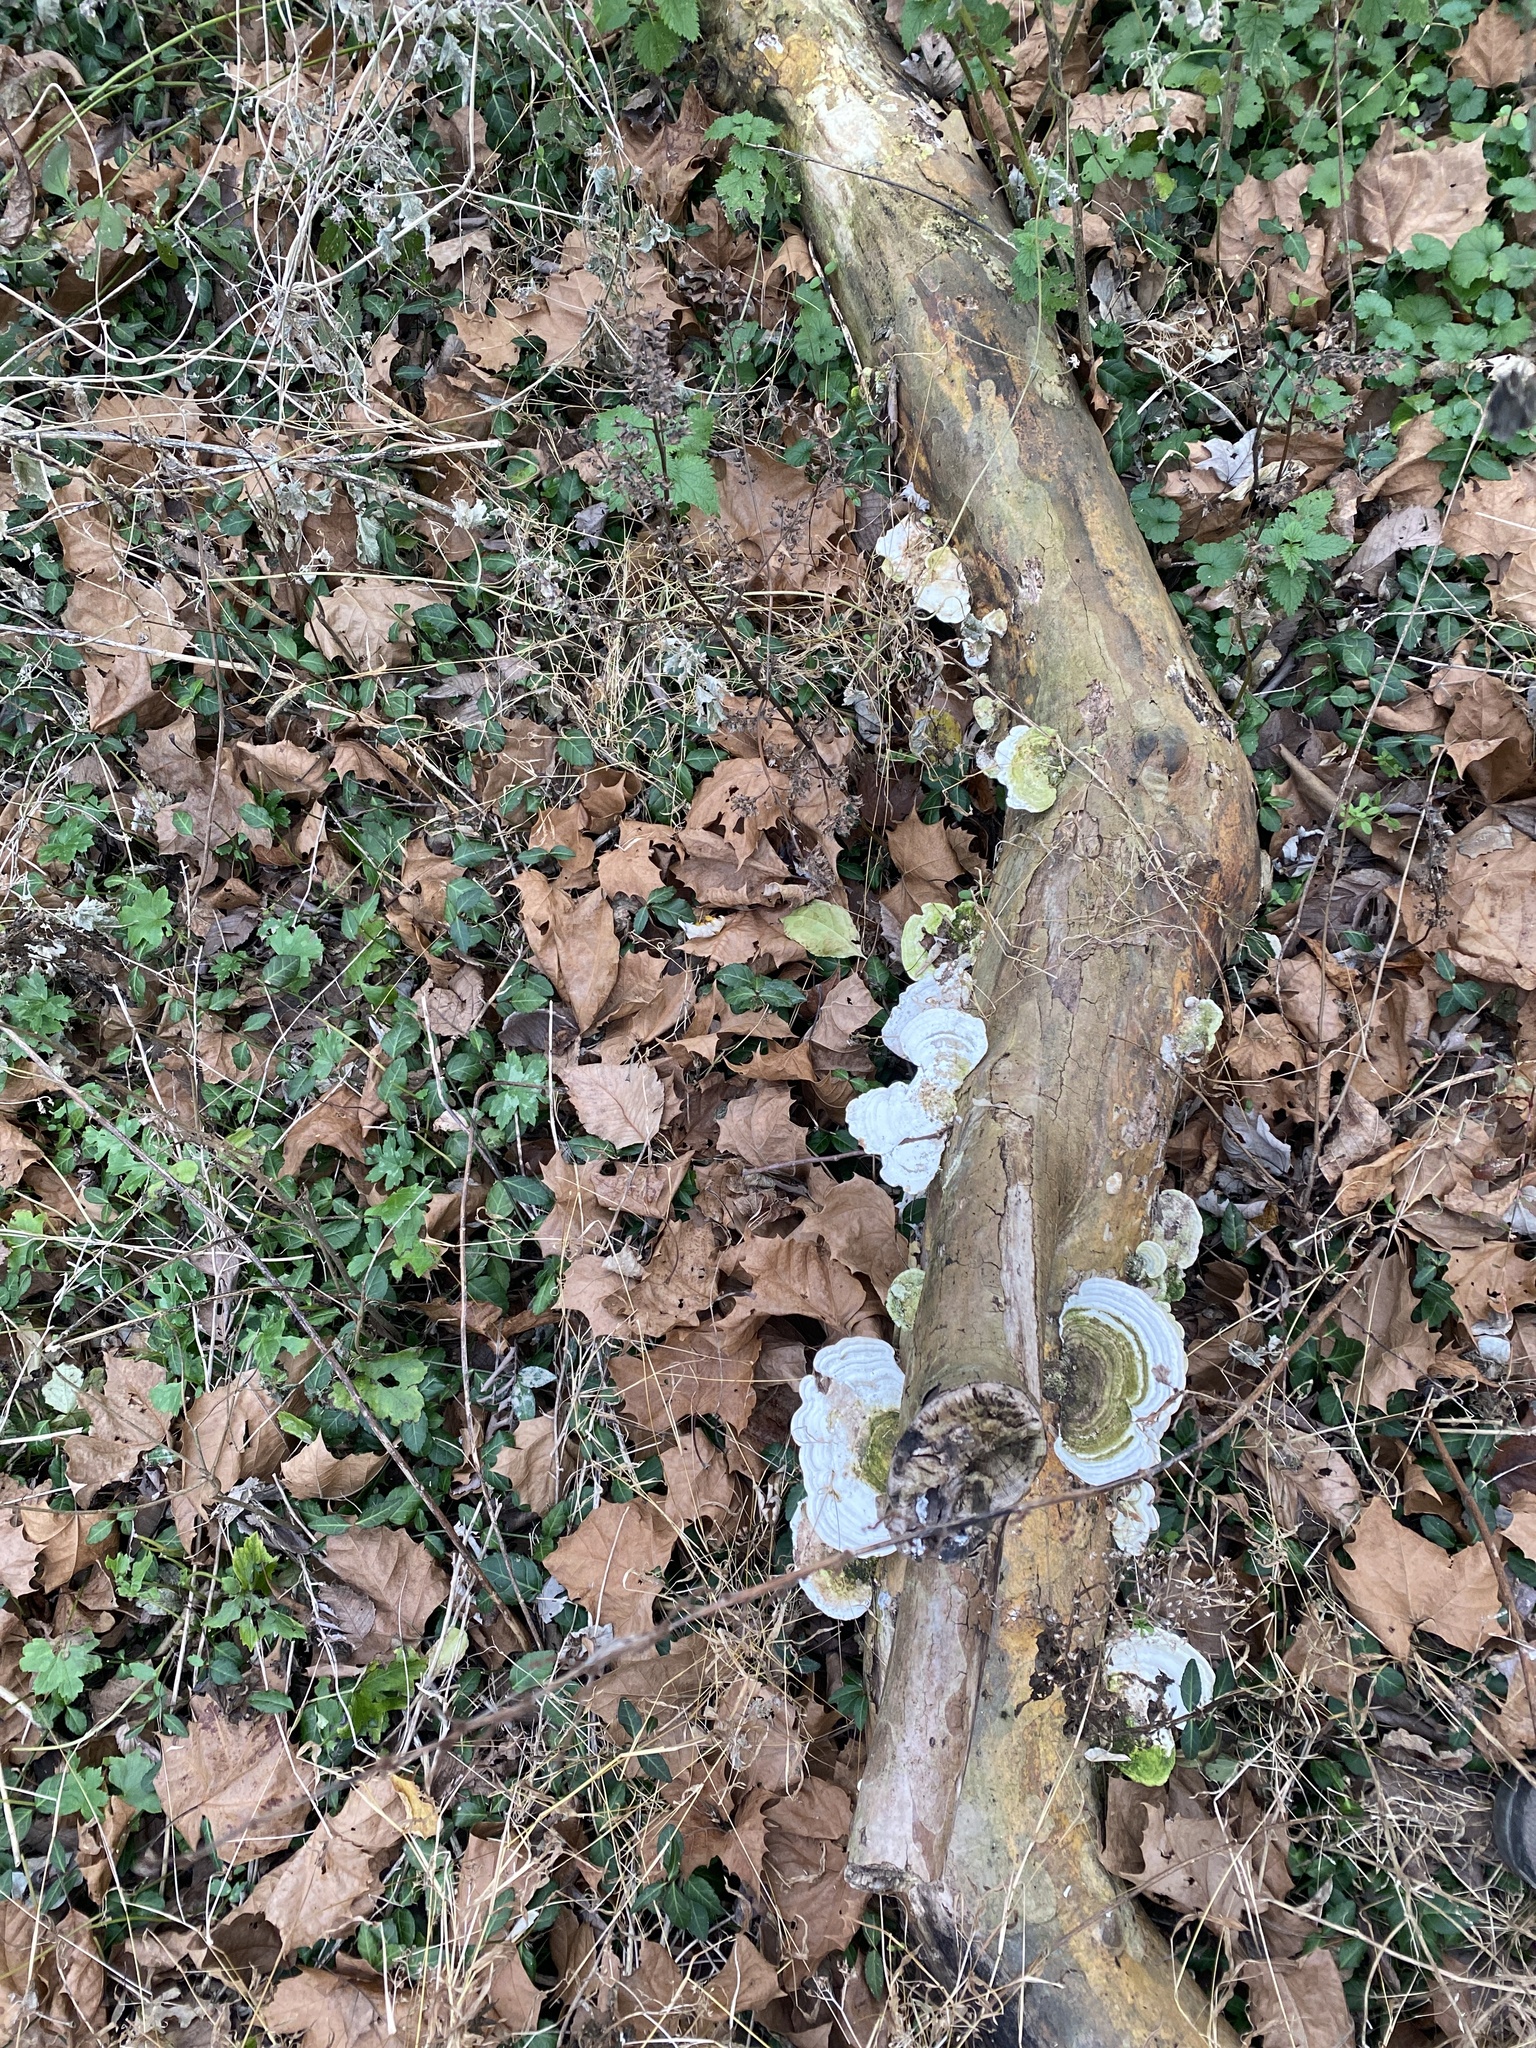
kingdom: Fungi
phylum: Basidiomycota
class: Agaricomycetes
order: Polyporales
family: Polyporaceae
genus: Trametes
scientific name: Trametes gibbosa
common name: Lumpy bracket
